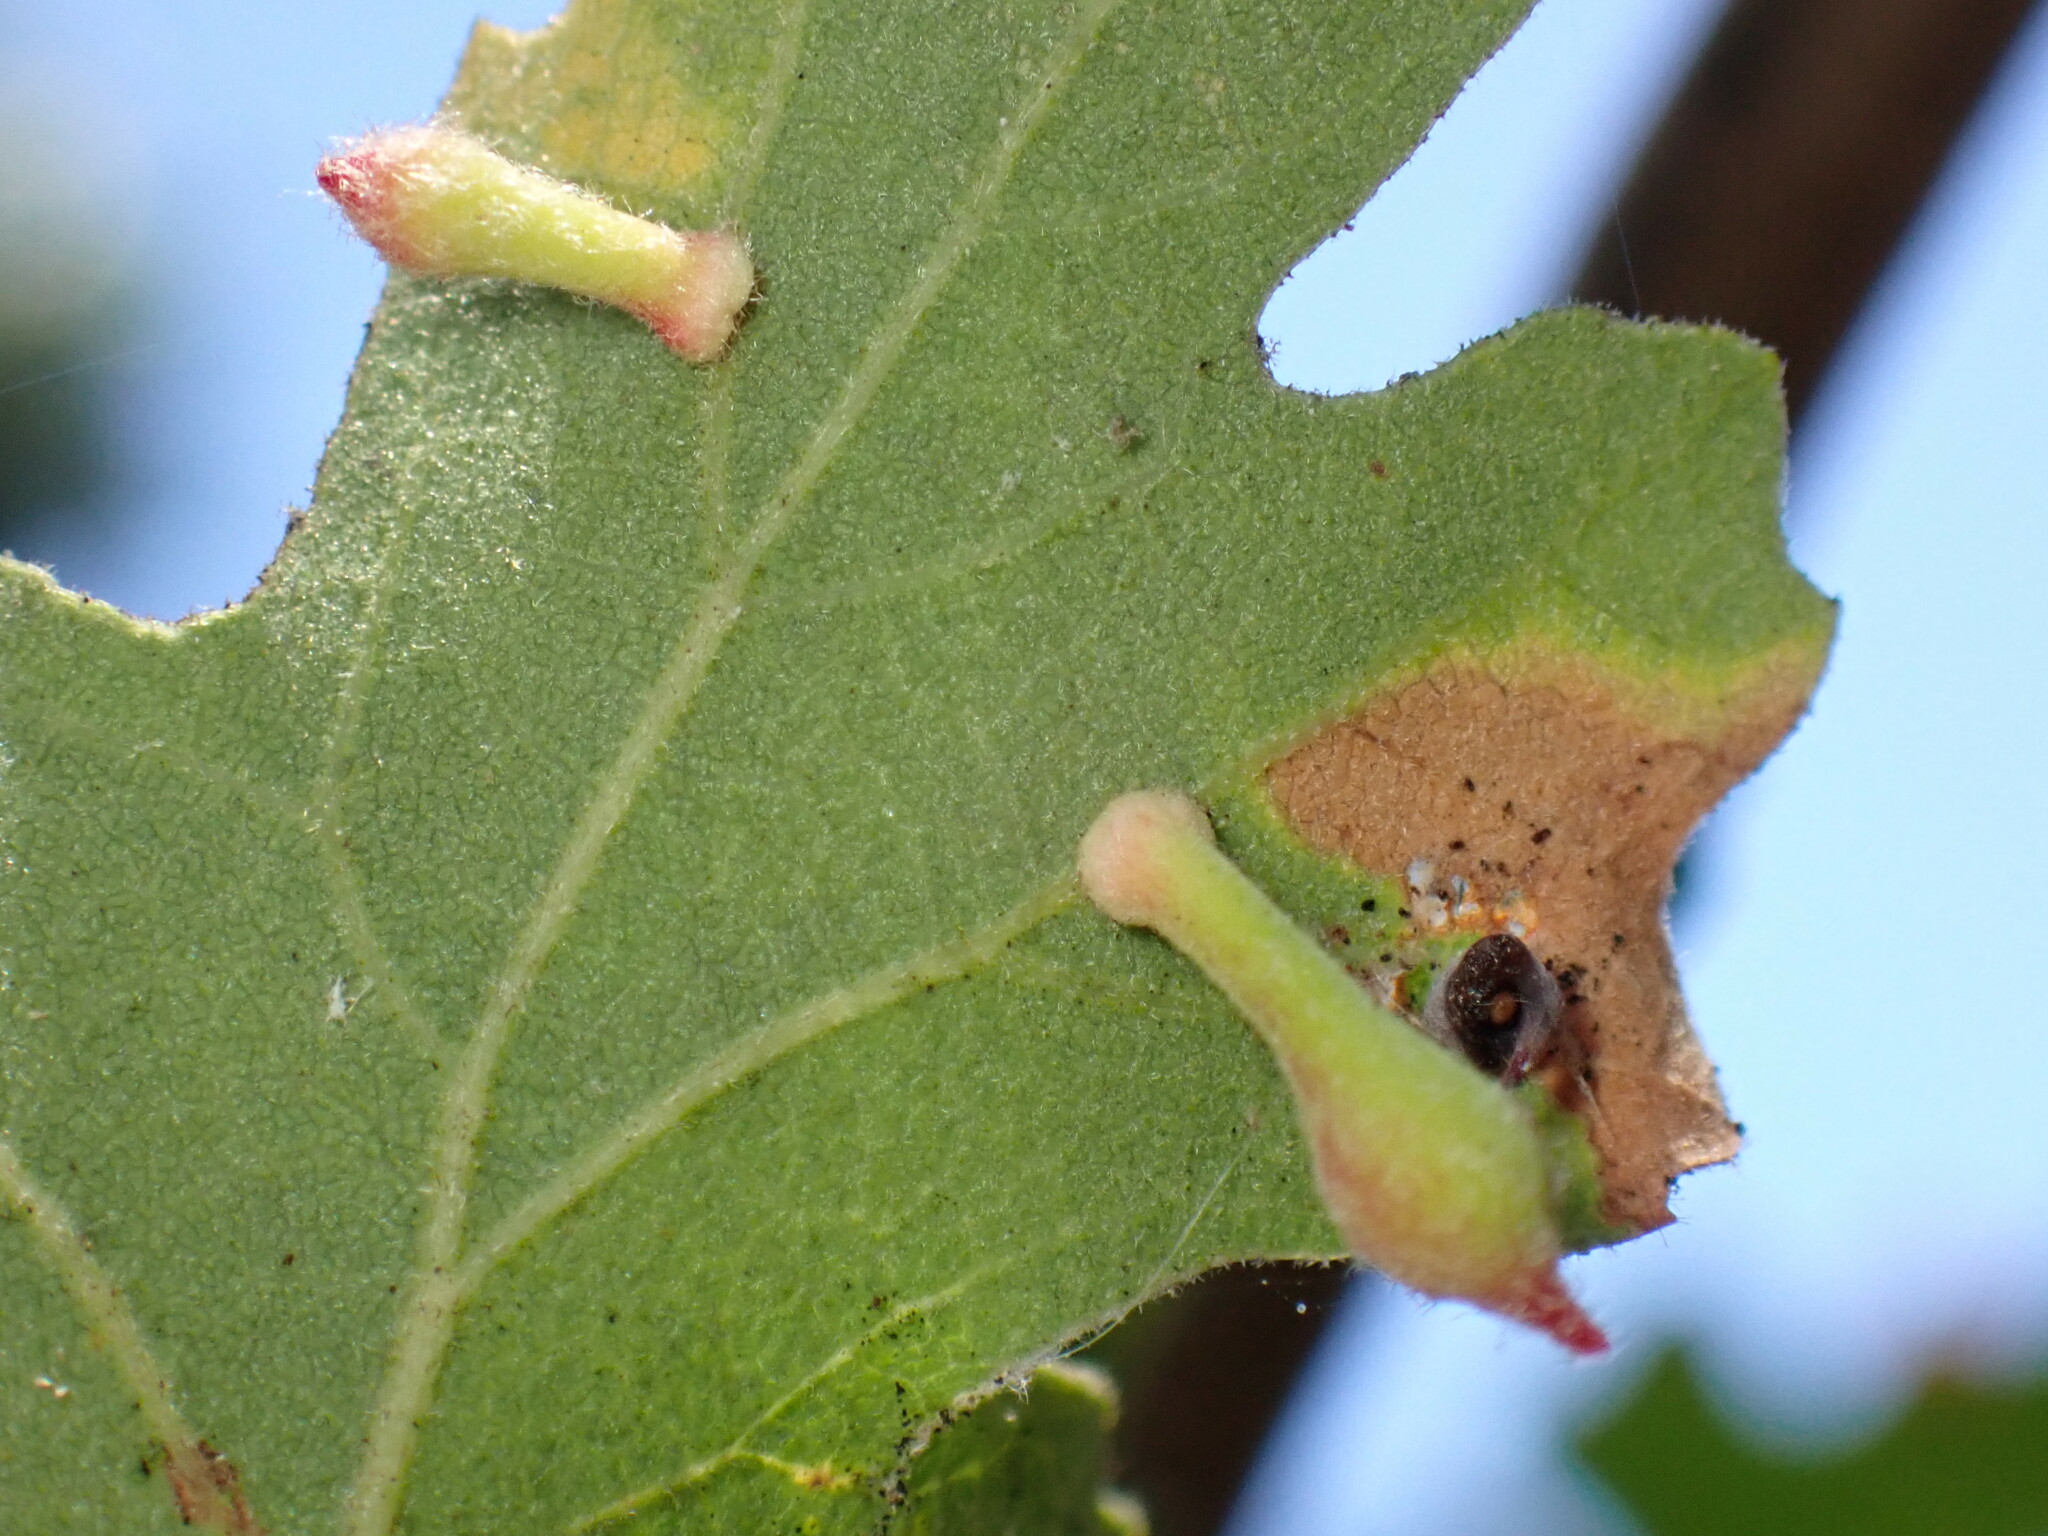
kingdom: Animalia
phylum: Arthropoda
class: Insecta
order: Hymenoptera
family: Cynipidae
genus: Atrusca
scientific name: Atrusca
